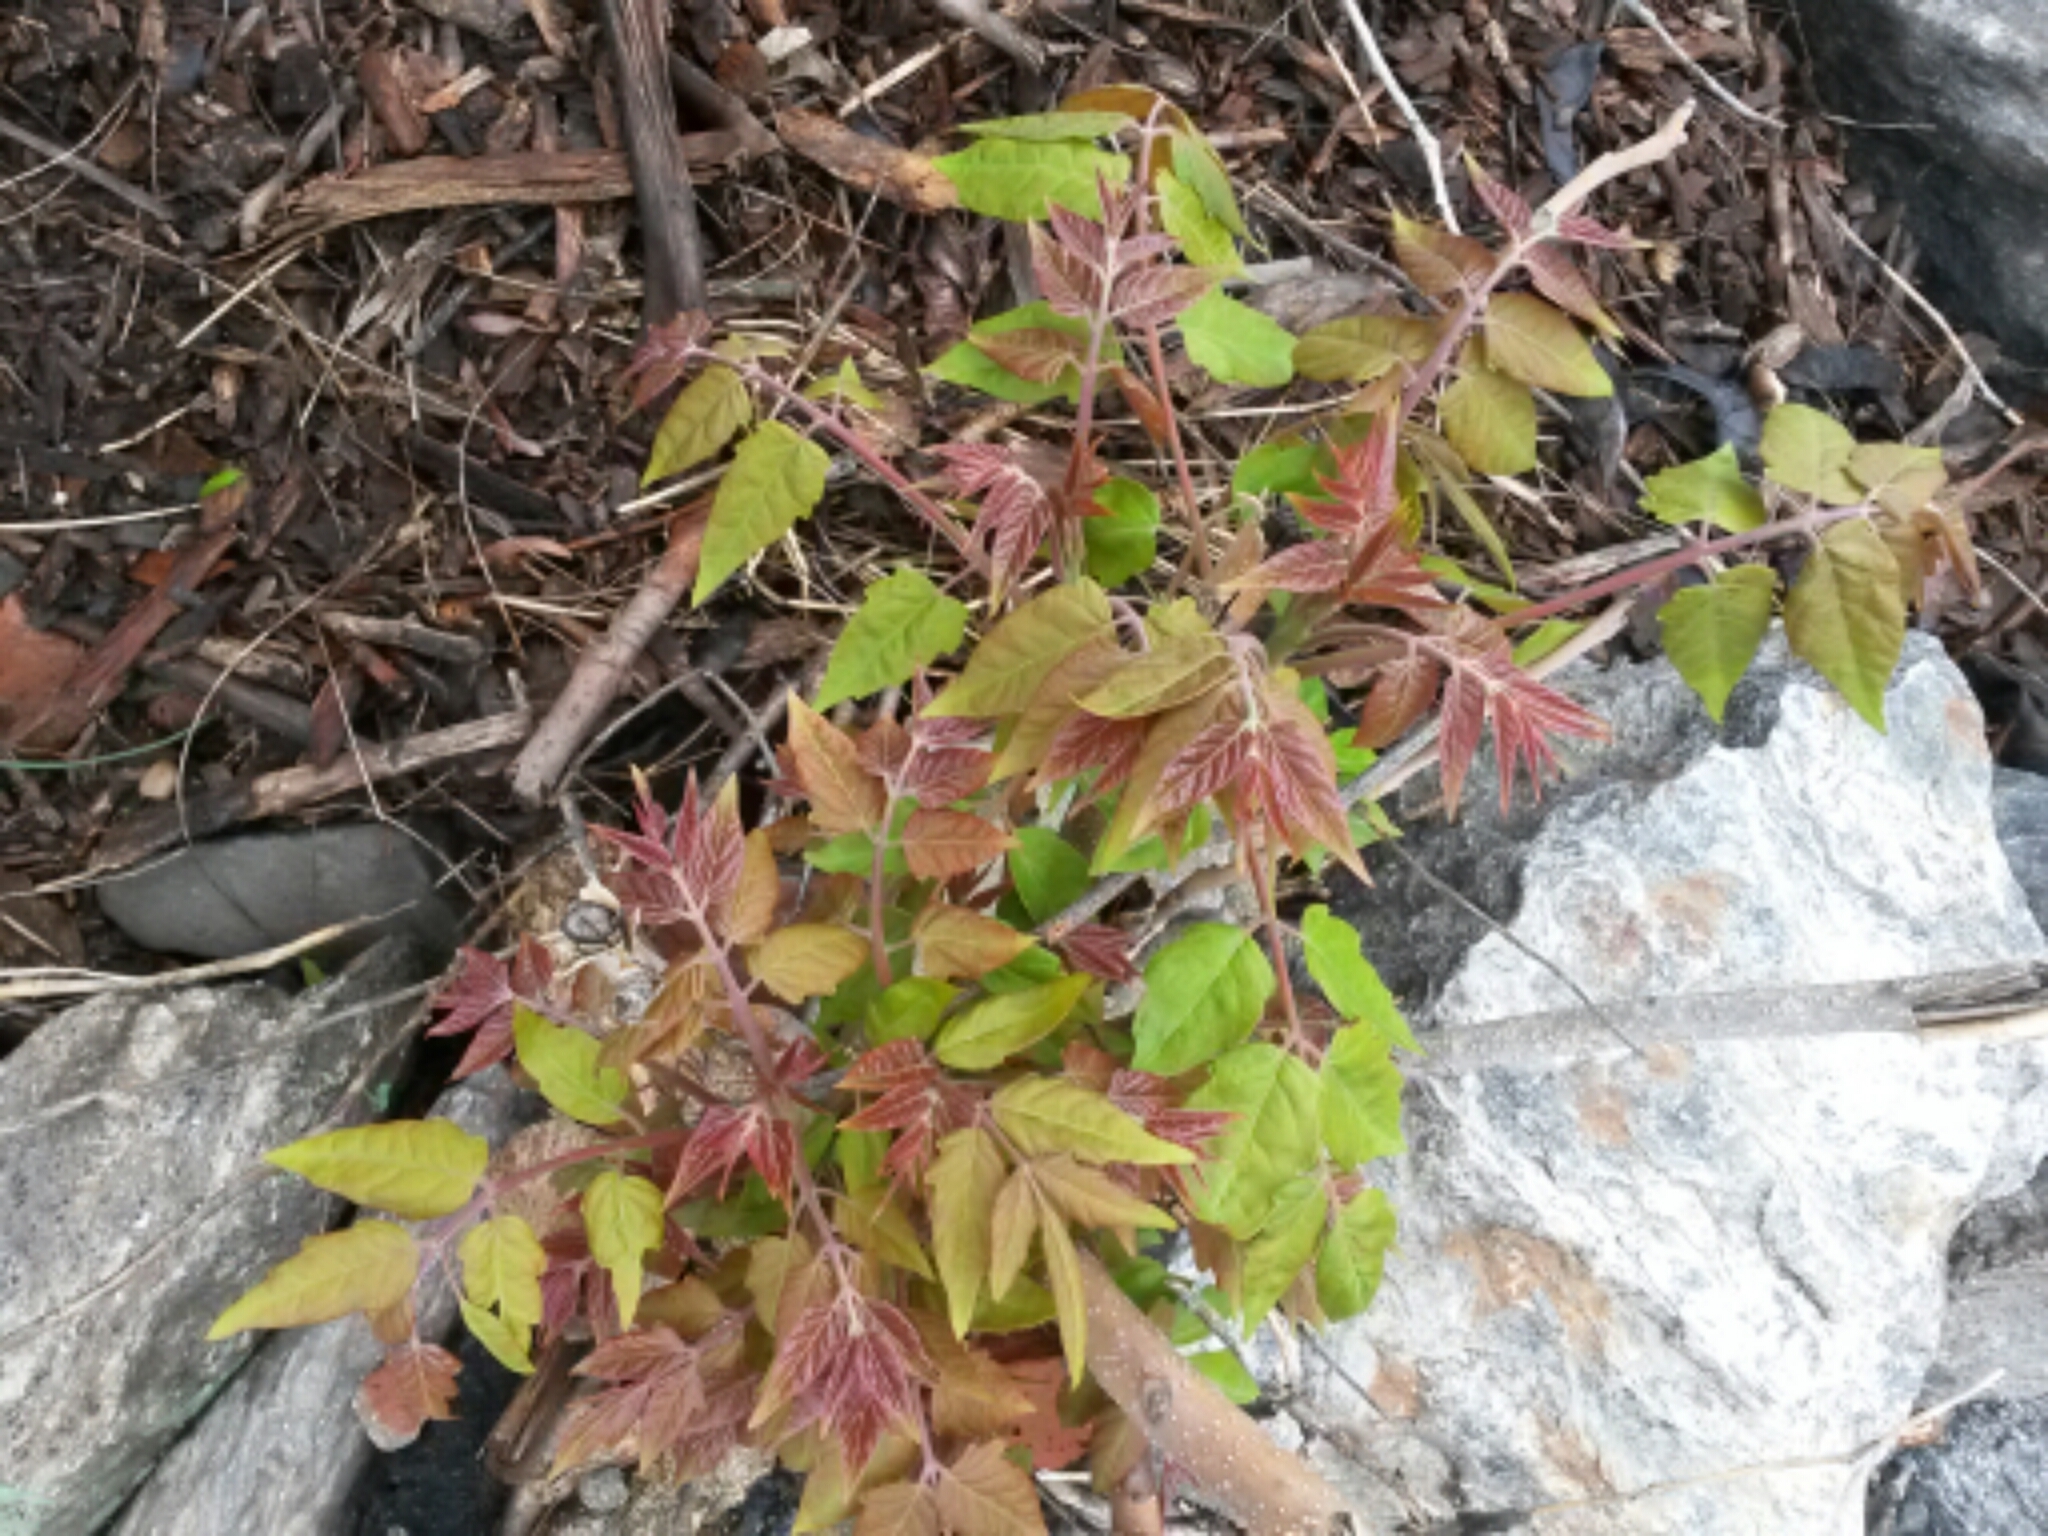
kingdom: Plantae
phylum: Tracheophyta
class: Magnoliopsida
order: Sapindales
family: Simaroubaceae
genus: Ailanthus
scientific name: Ailanthus altissima
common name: Tree-of-heaven
